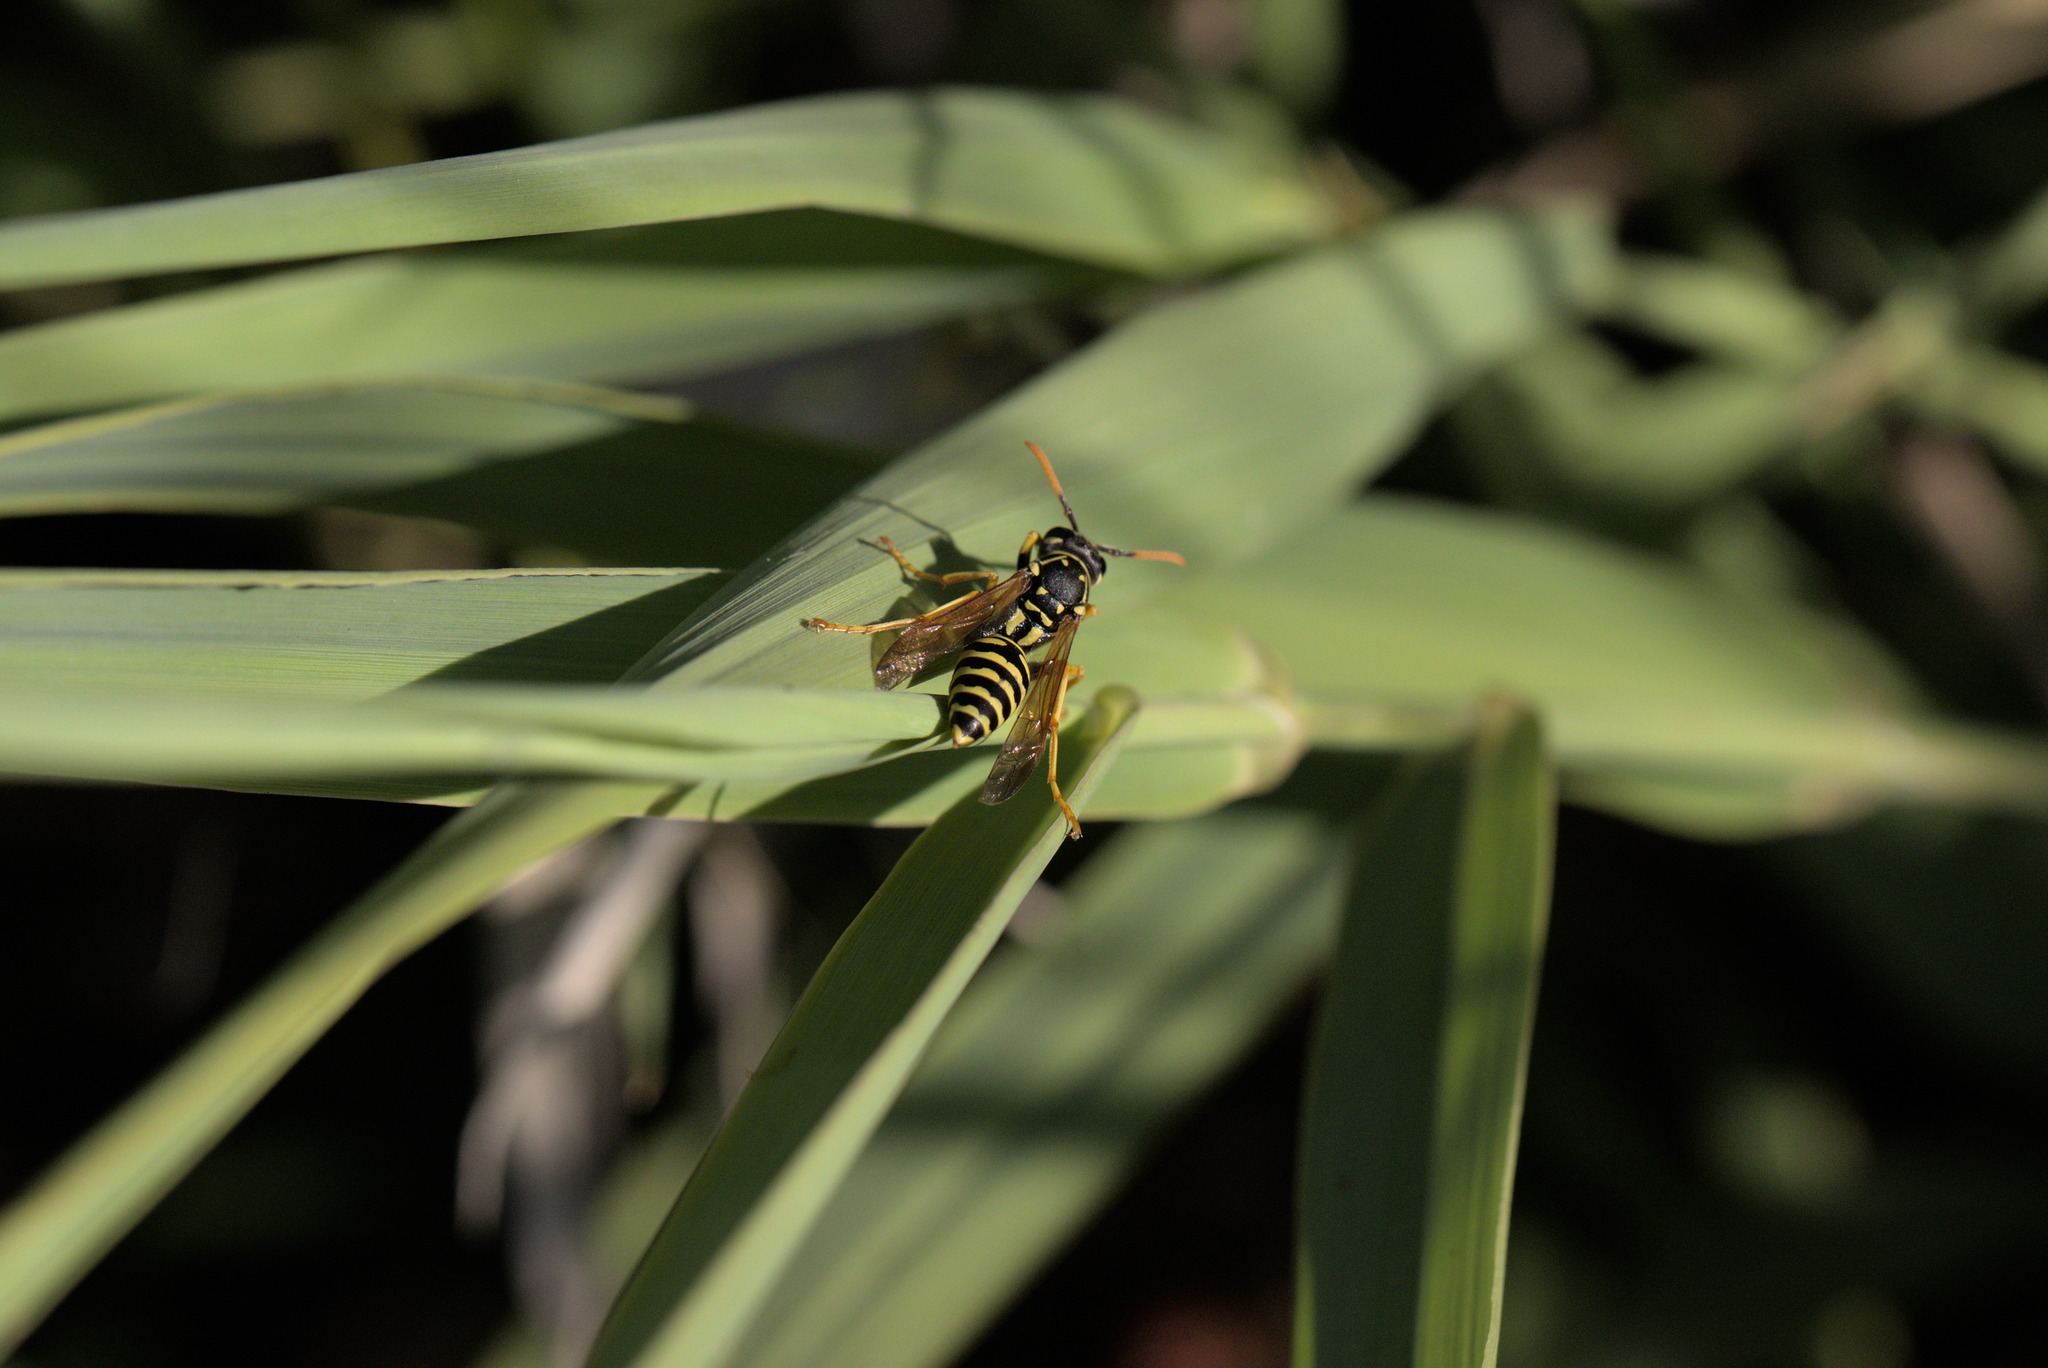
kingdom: Animalia
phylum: Arthropoda
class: Insecta
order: Hymenoptera
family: Eumenidae
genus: Polistes
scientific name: Polistes dominula
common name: Paper wasp
